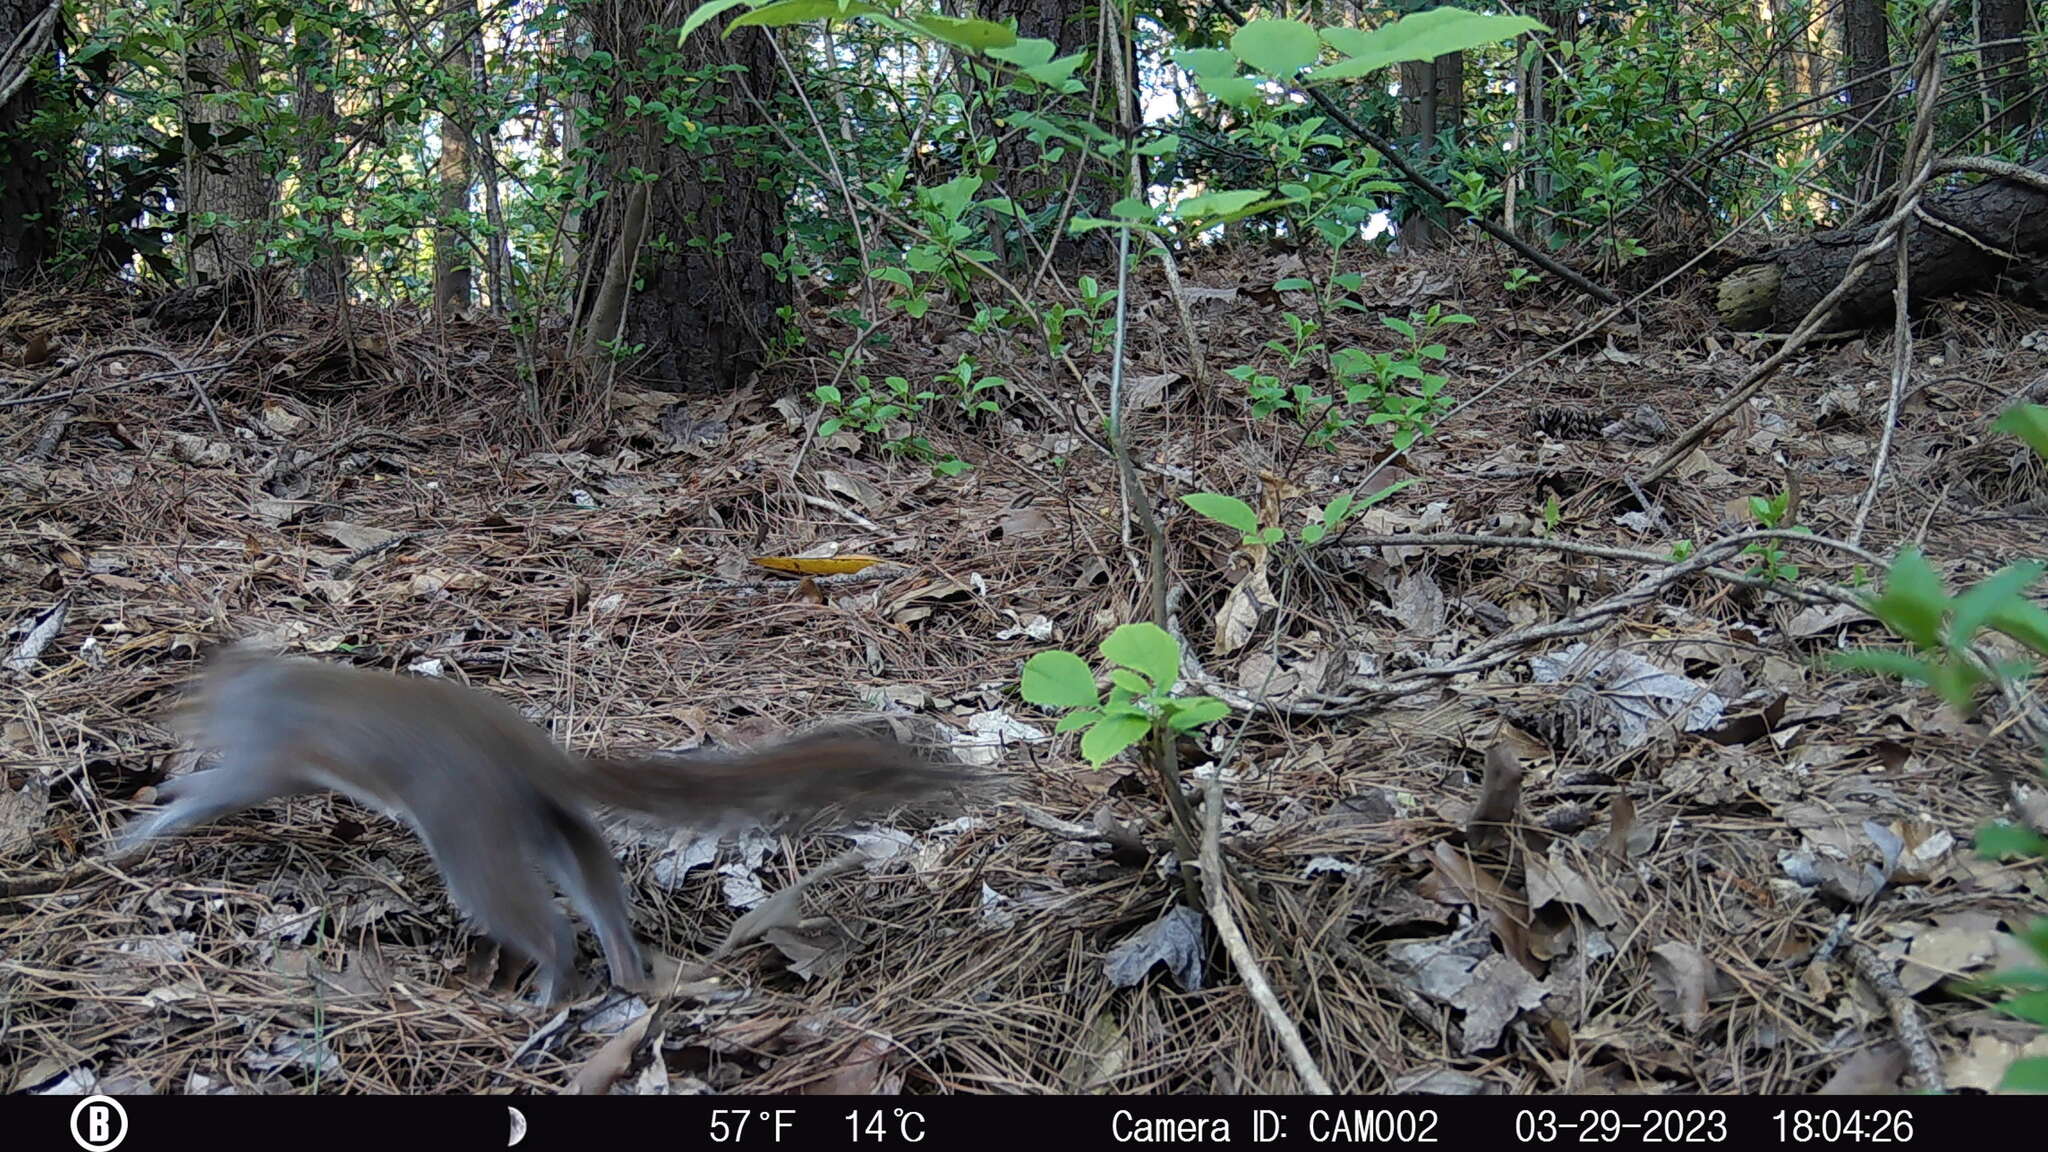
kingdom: Animalia
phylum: Chordata
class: Mammalia
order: Rodentia
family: Sciuridae
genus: Sciurus
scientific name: Sciurus carolinensis
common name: Eastern gray squirrel
